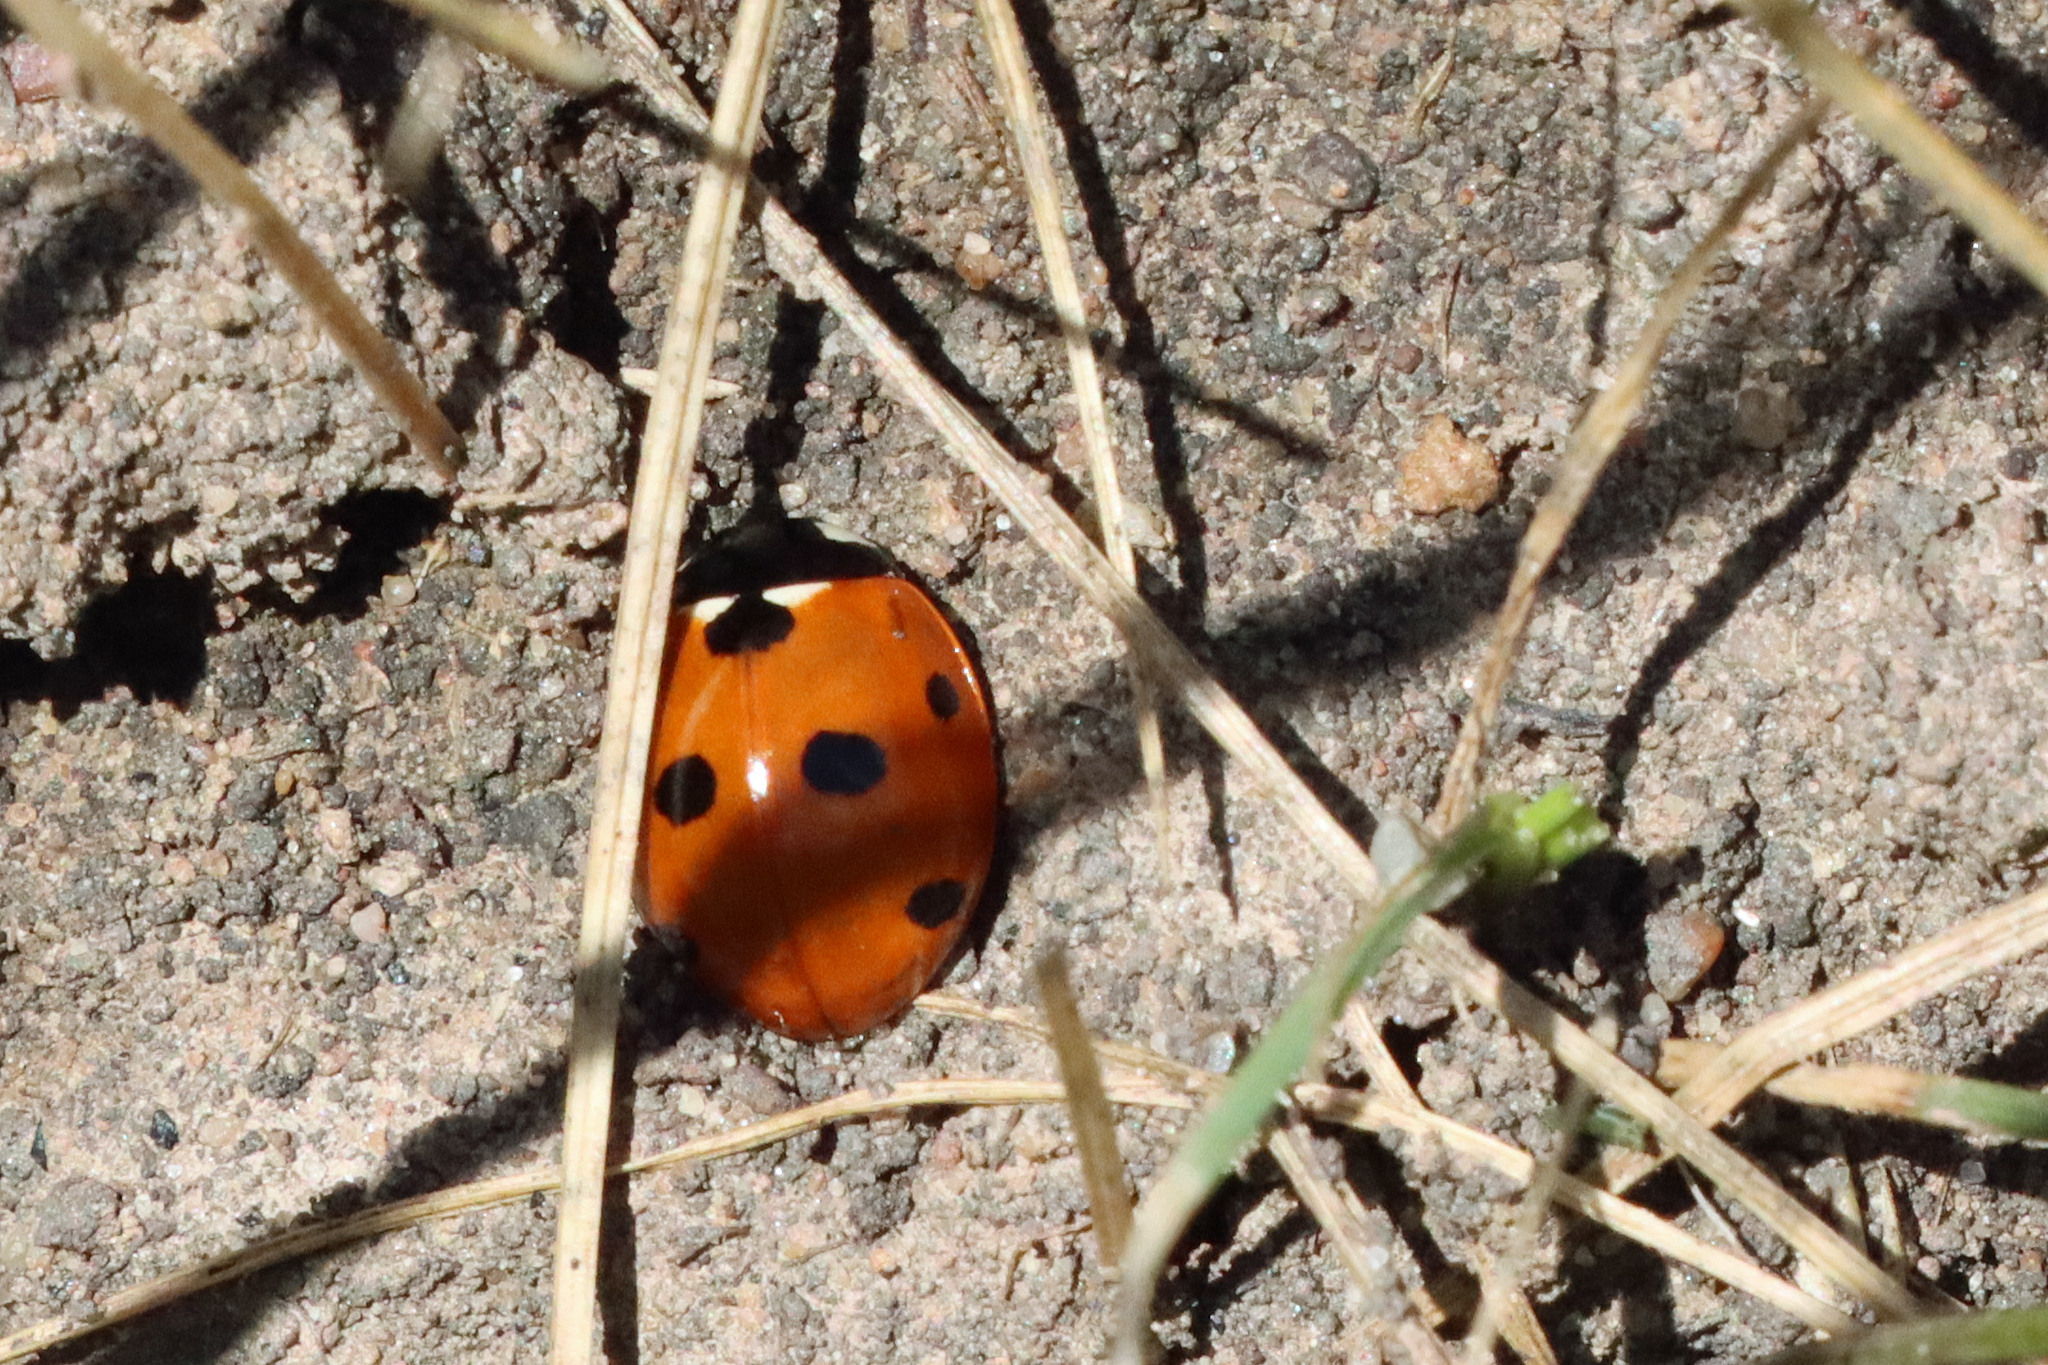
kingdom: Animalia
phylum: Arthropoda
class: Insecta
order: Coleoptera
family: Coccinellidae
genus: Coccinella
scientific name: Coccinella septempunctata
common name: Sevenspotted lady beetle
